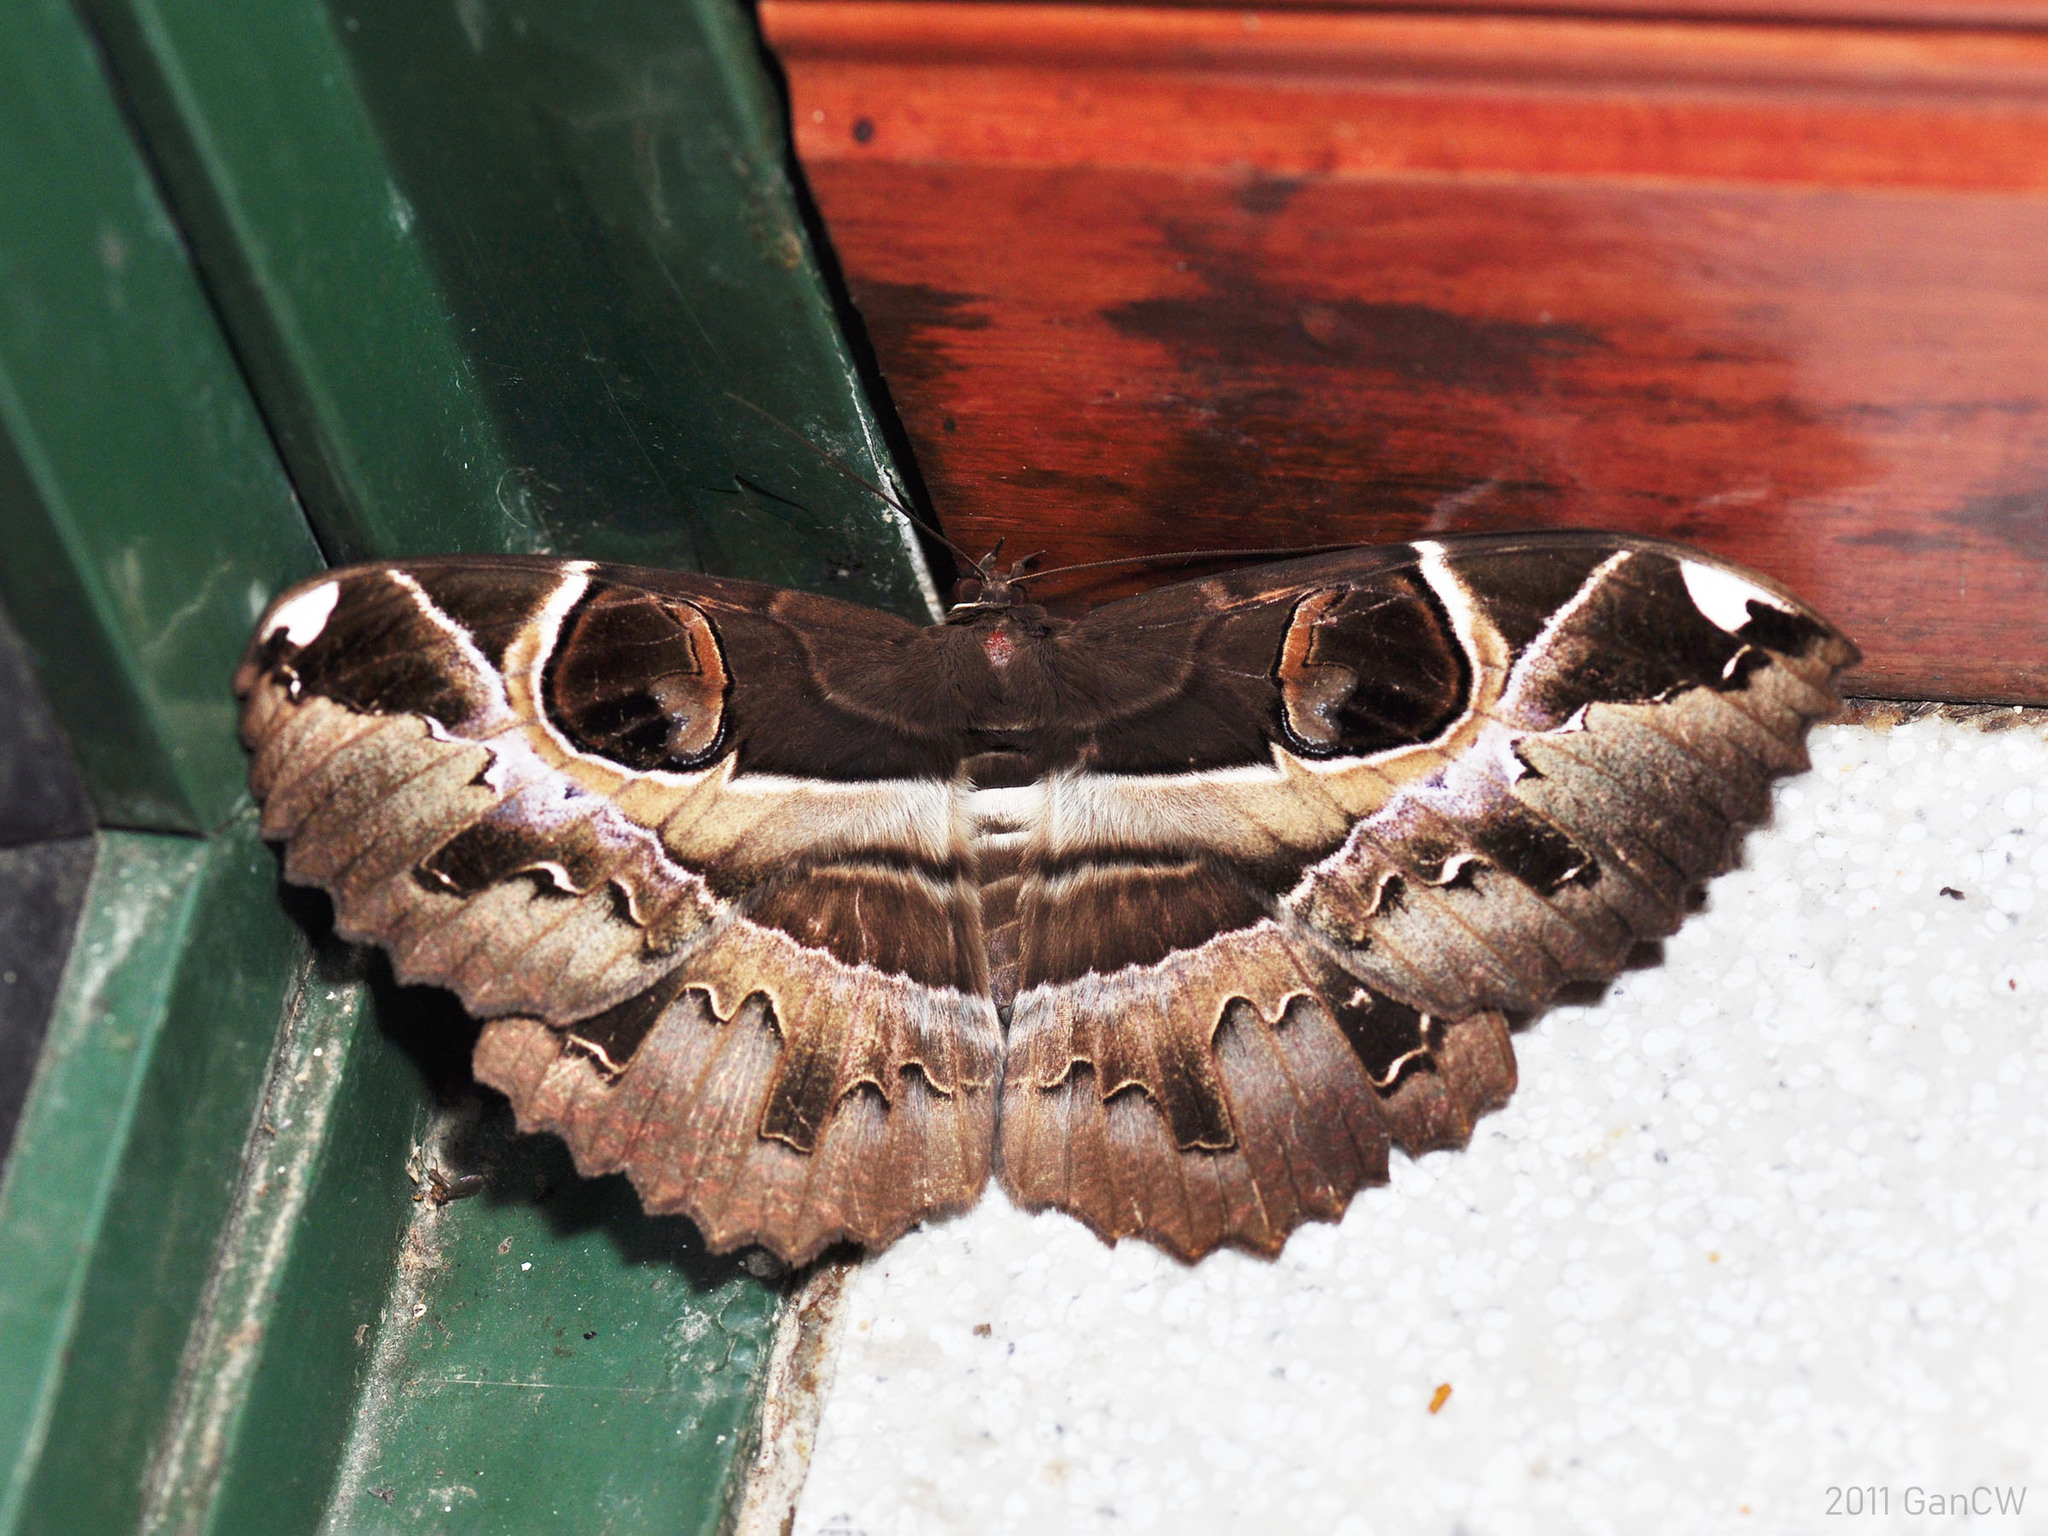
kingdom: Animalia
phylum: Arthropoda
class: Insecta
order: Lepidoptera
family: Erebidae
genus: Erebus
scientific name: Erebus ephesperis
